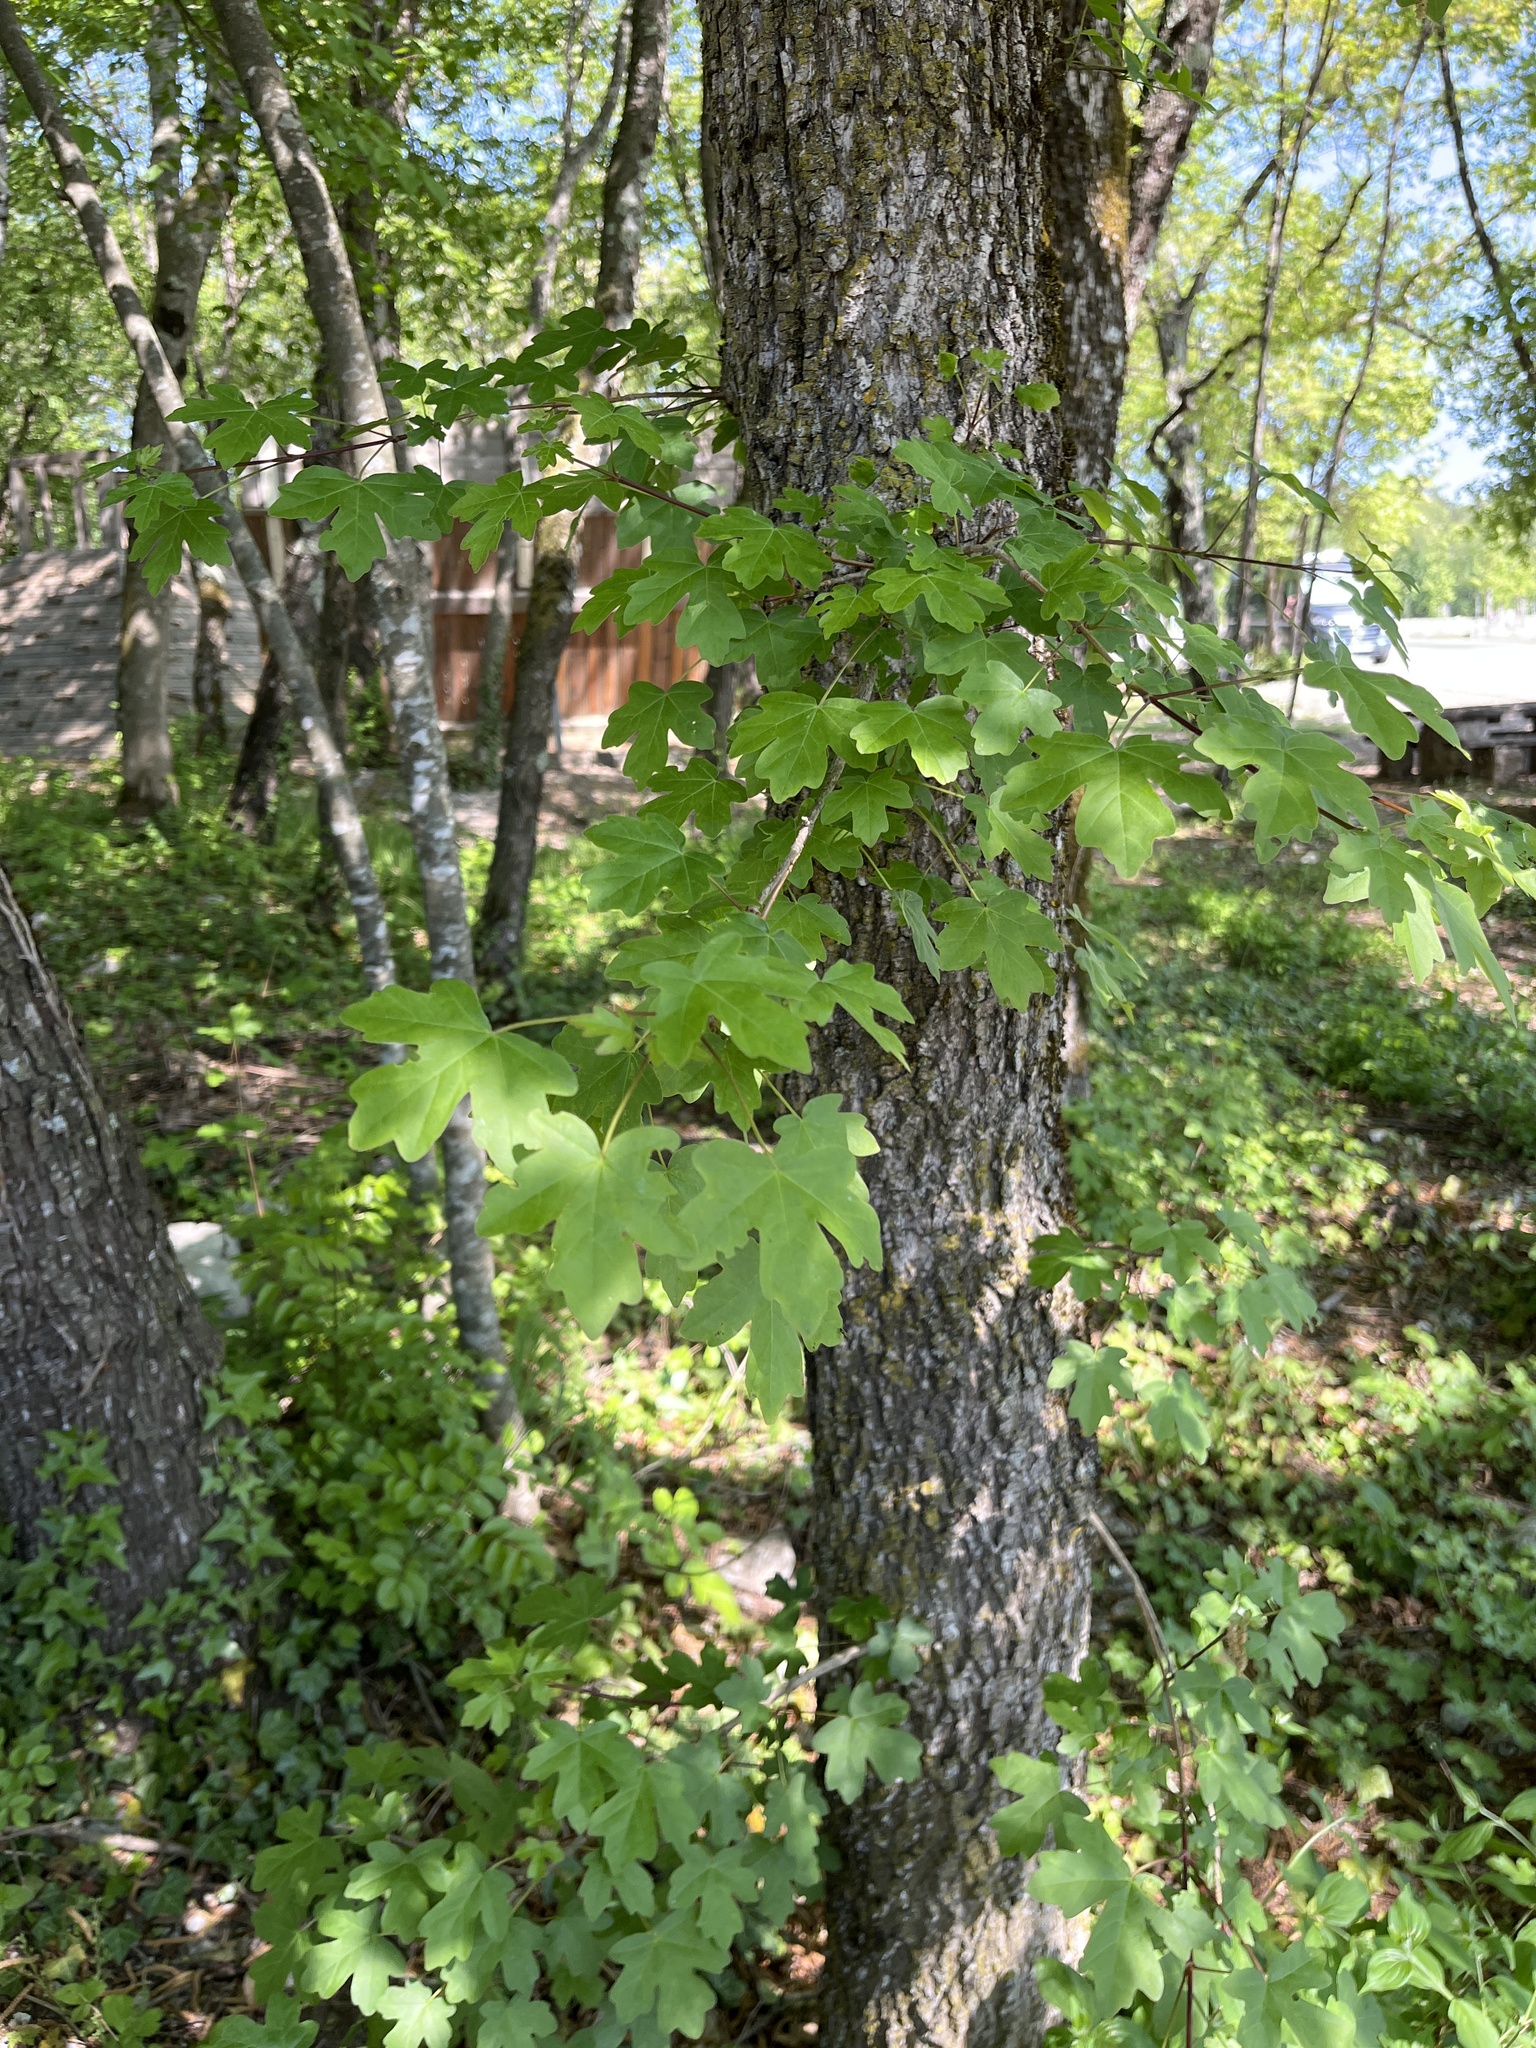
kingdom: Plantae
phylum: Tracheophyta
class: Magnoliopsida
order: Sapindales
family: Sapindaceae
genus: Acer
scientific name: Acer campestre
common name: Field maple
